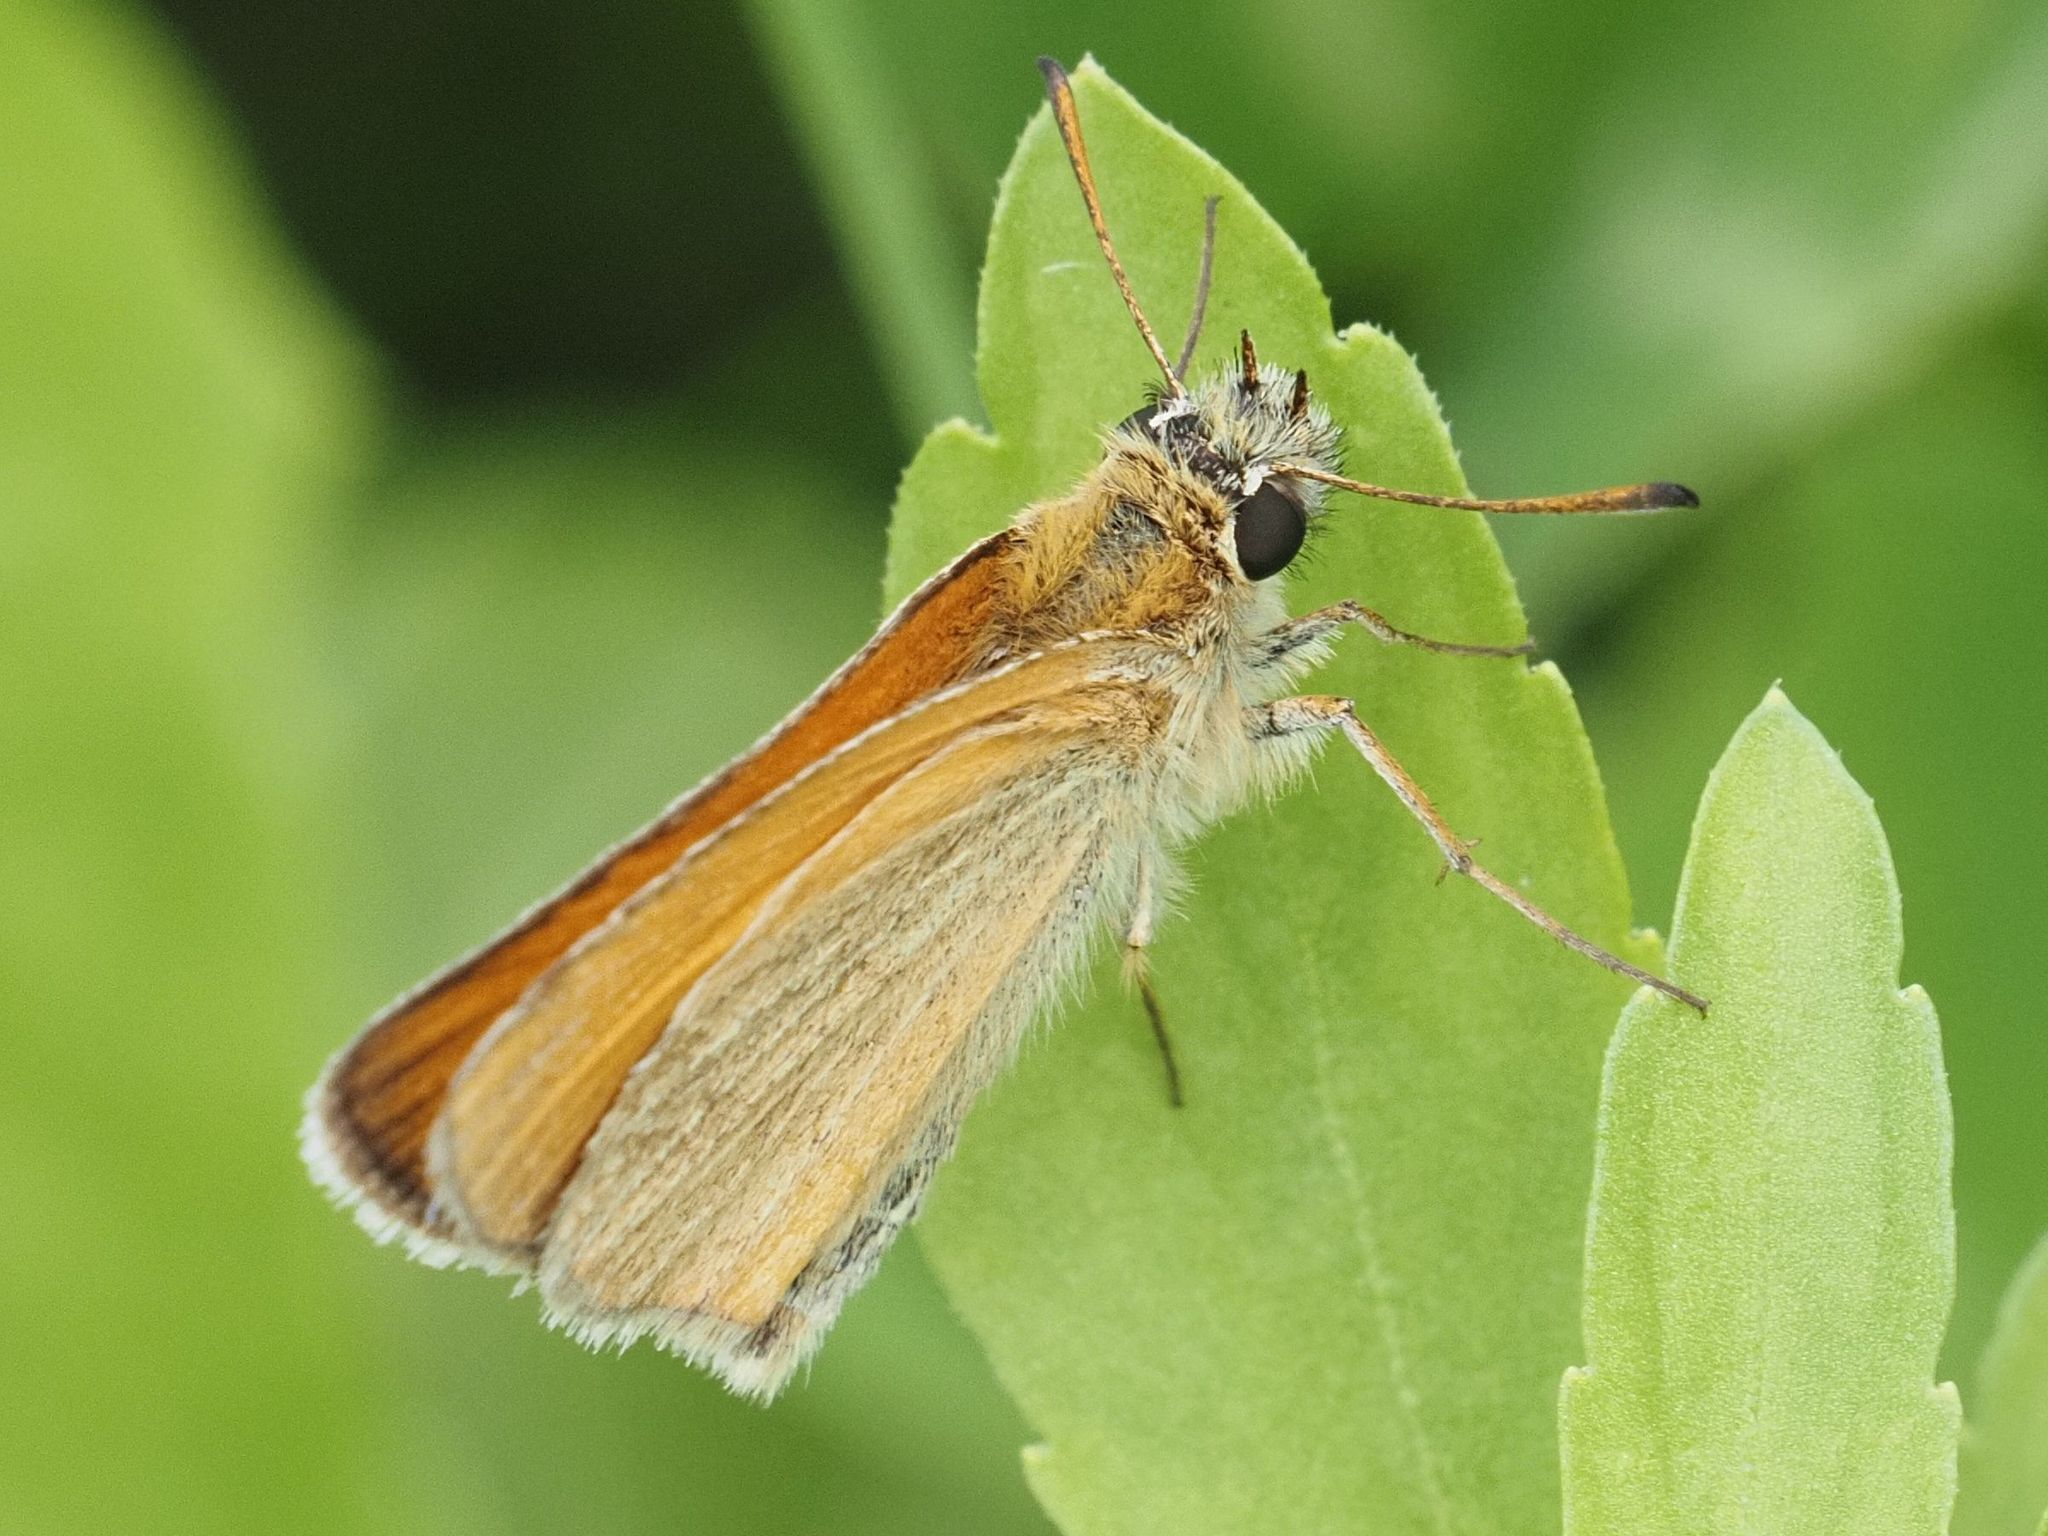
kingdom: Animalia
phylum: Arthropoda
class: Insecta
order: Lepidoptera
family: Hesperiidae
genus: Thymelicus
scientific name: Thymelicus lineola
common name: Essex skipper
